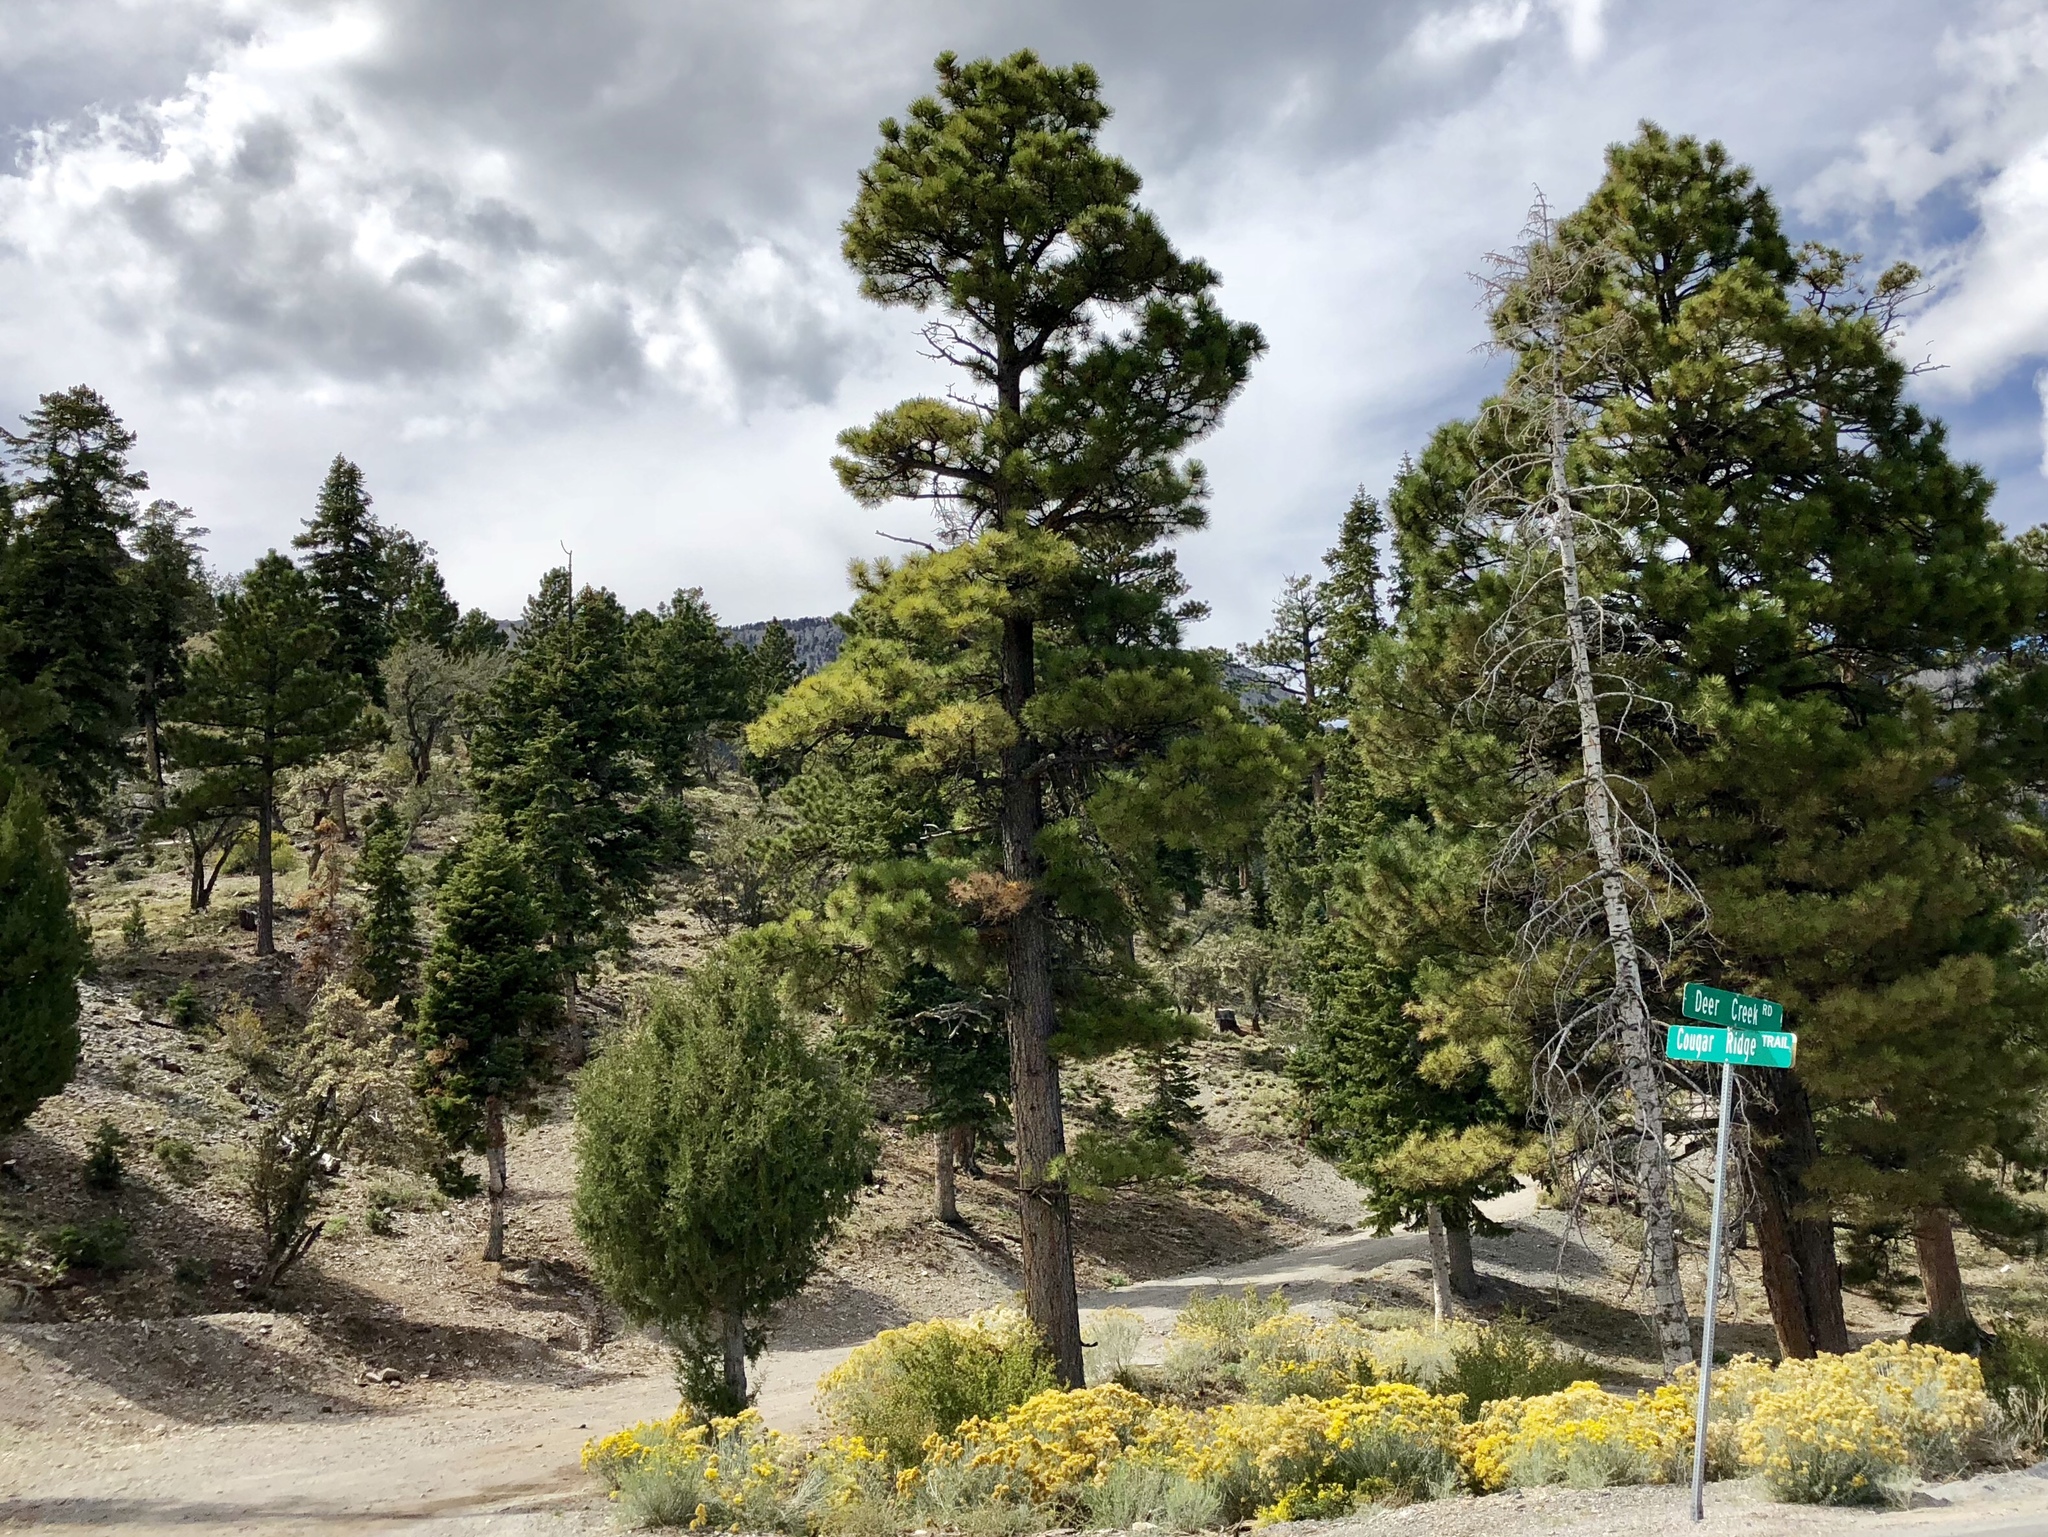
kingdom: Plantae
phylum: Tracheophyta
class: Pinopsida
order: Pinales
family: Pinaceae
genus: Pinus
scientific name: Pinus ponderosa
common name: Western yellow-pine
